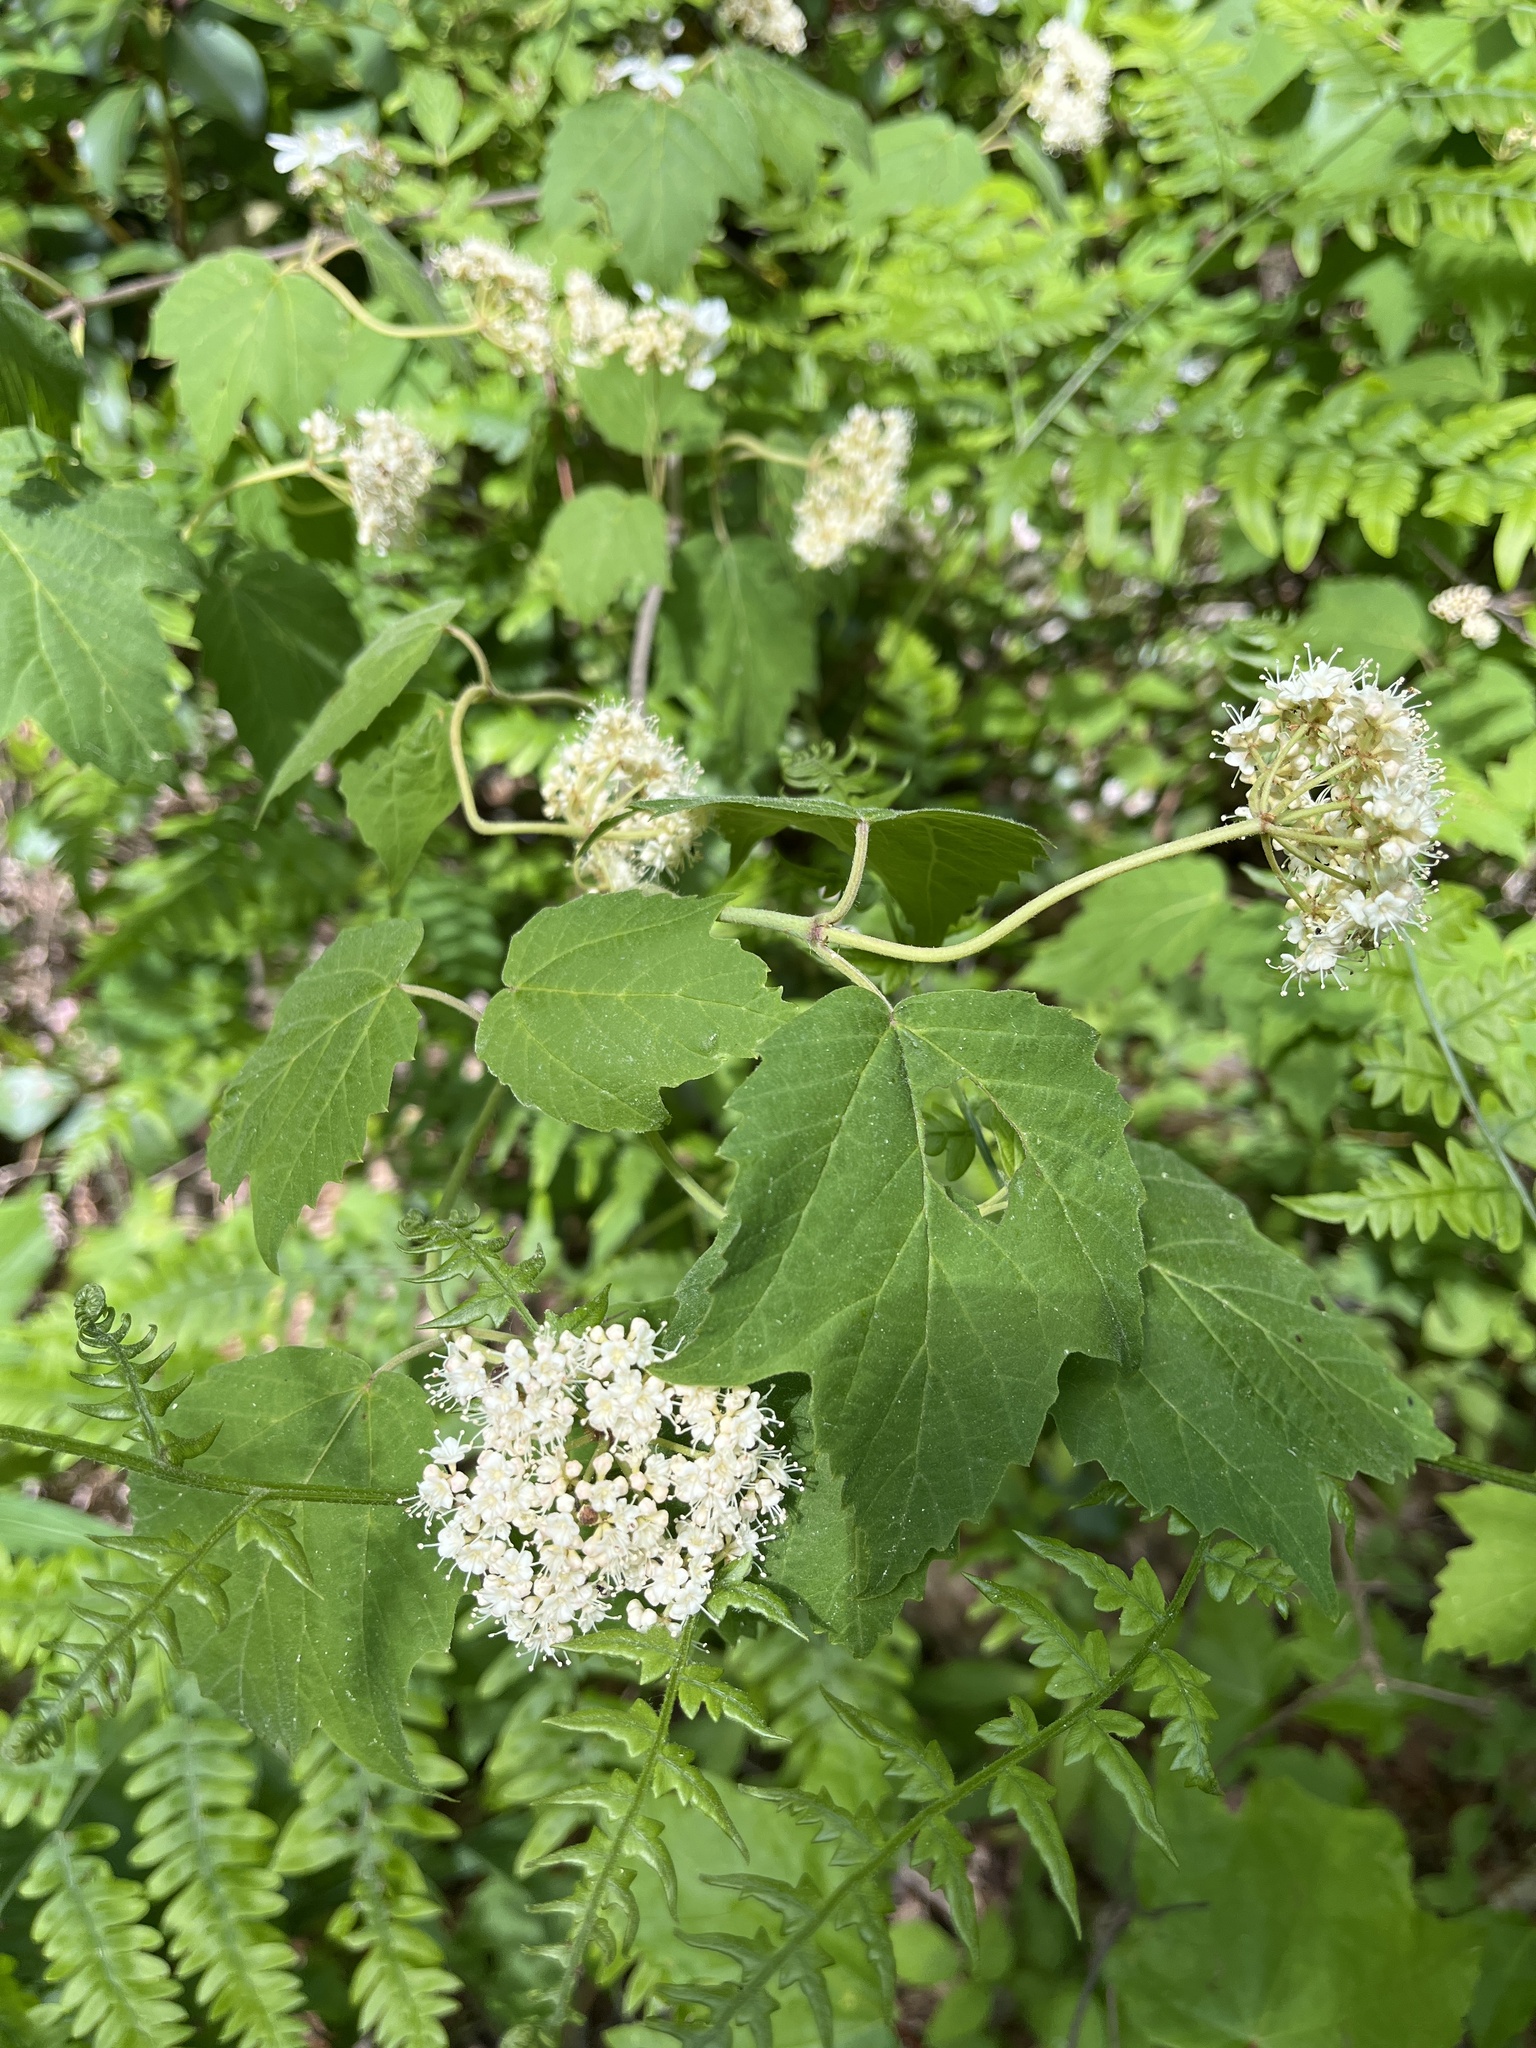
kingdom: Plantae
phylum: Tracheophyta
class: Magnoliopsida
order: Dipsacales
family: Viburnaceae
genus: Viburnum
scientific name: Viburnum acerifolium
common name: Dockmackie
